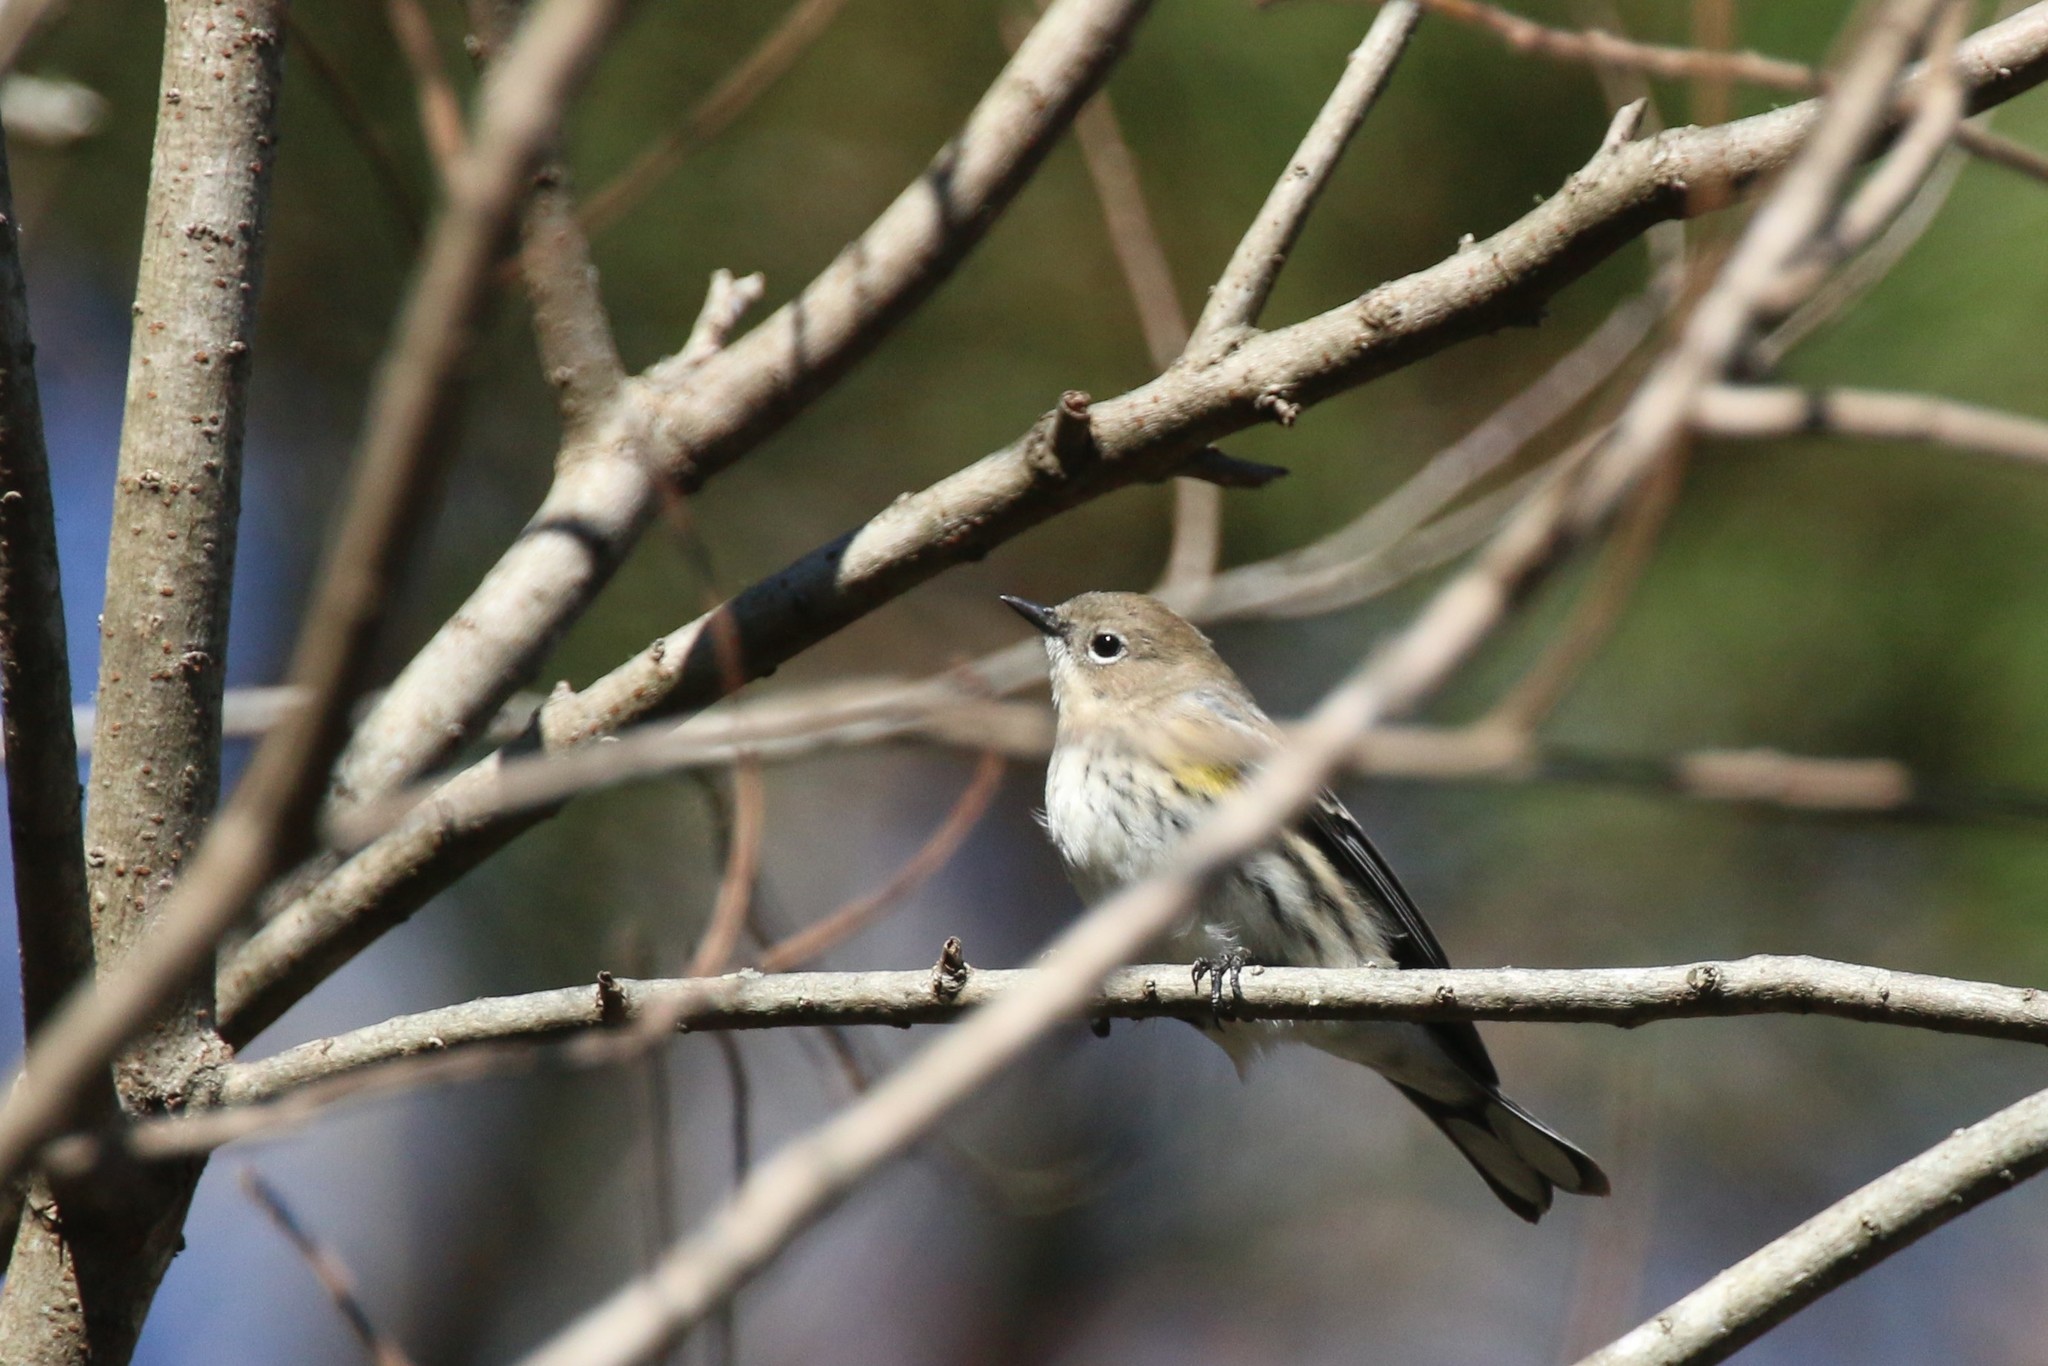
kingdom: Animalia
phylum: Chordata
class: Aves
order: Passeriformes
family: Parulidae
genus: Setophaga
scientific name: Setophaga coronata
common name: Myrtle warbler
